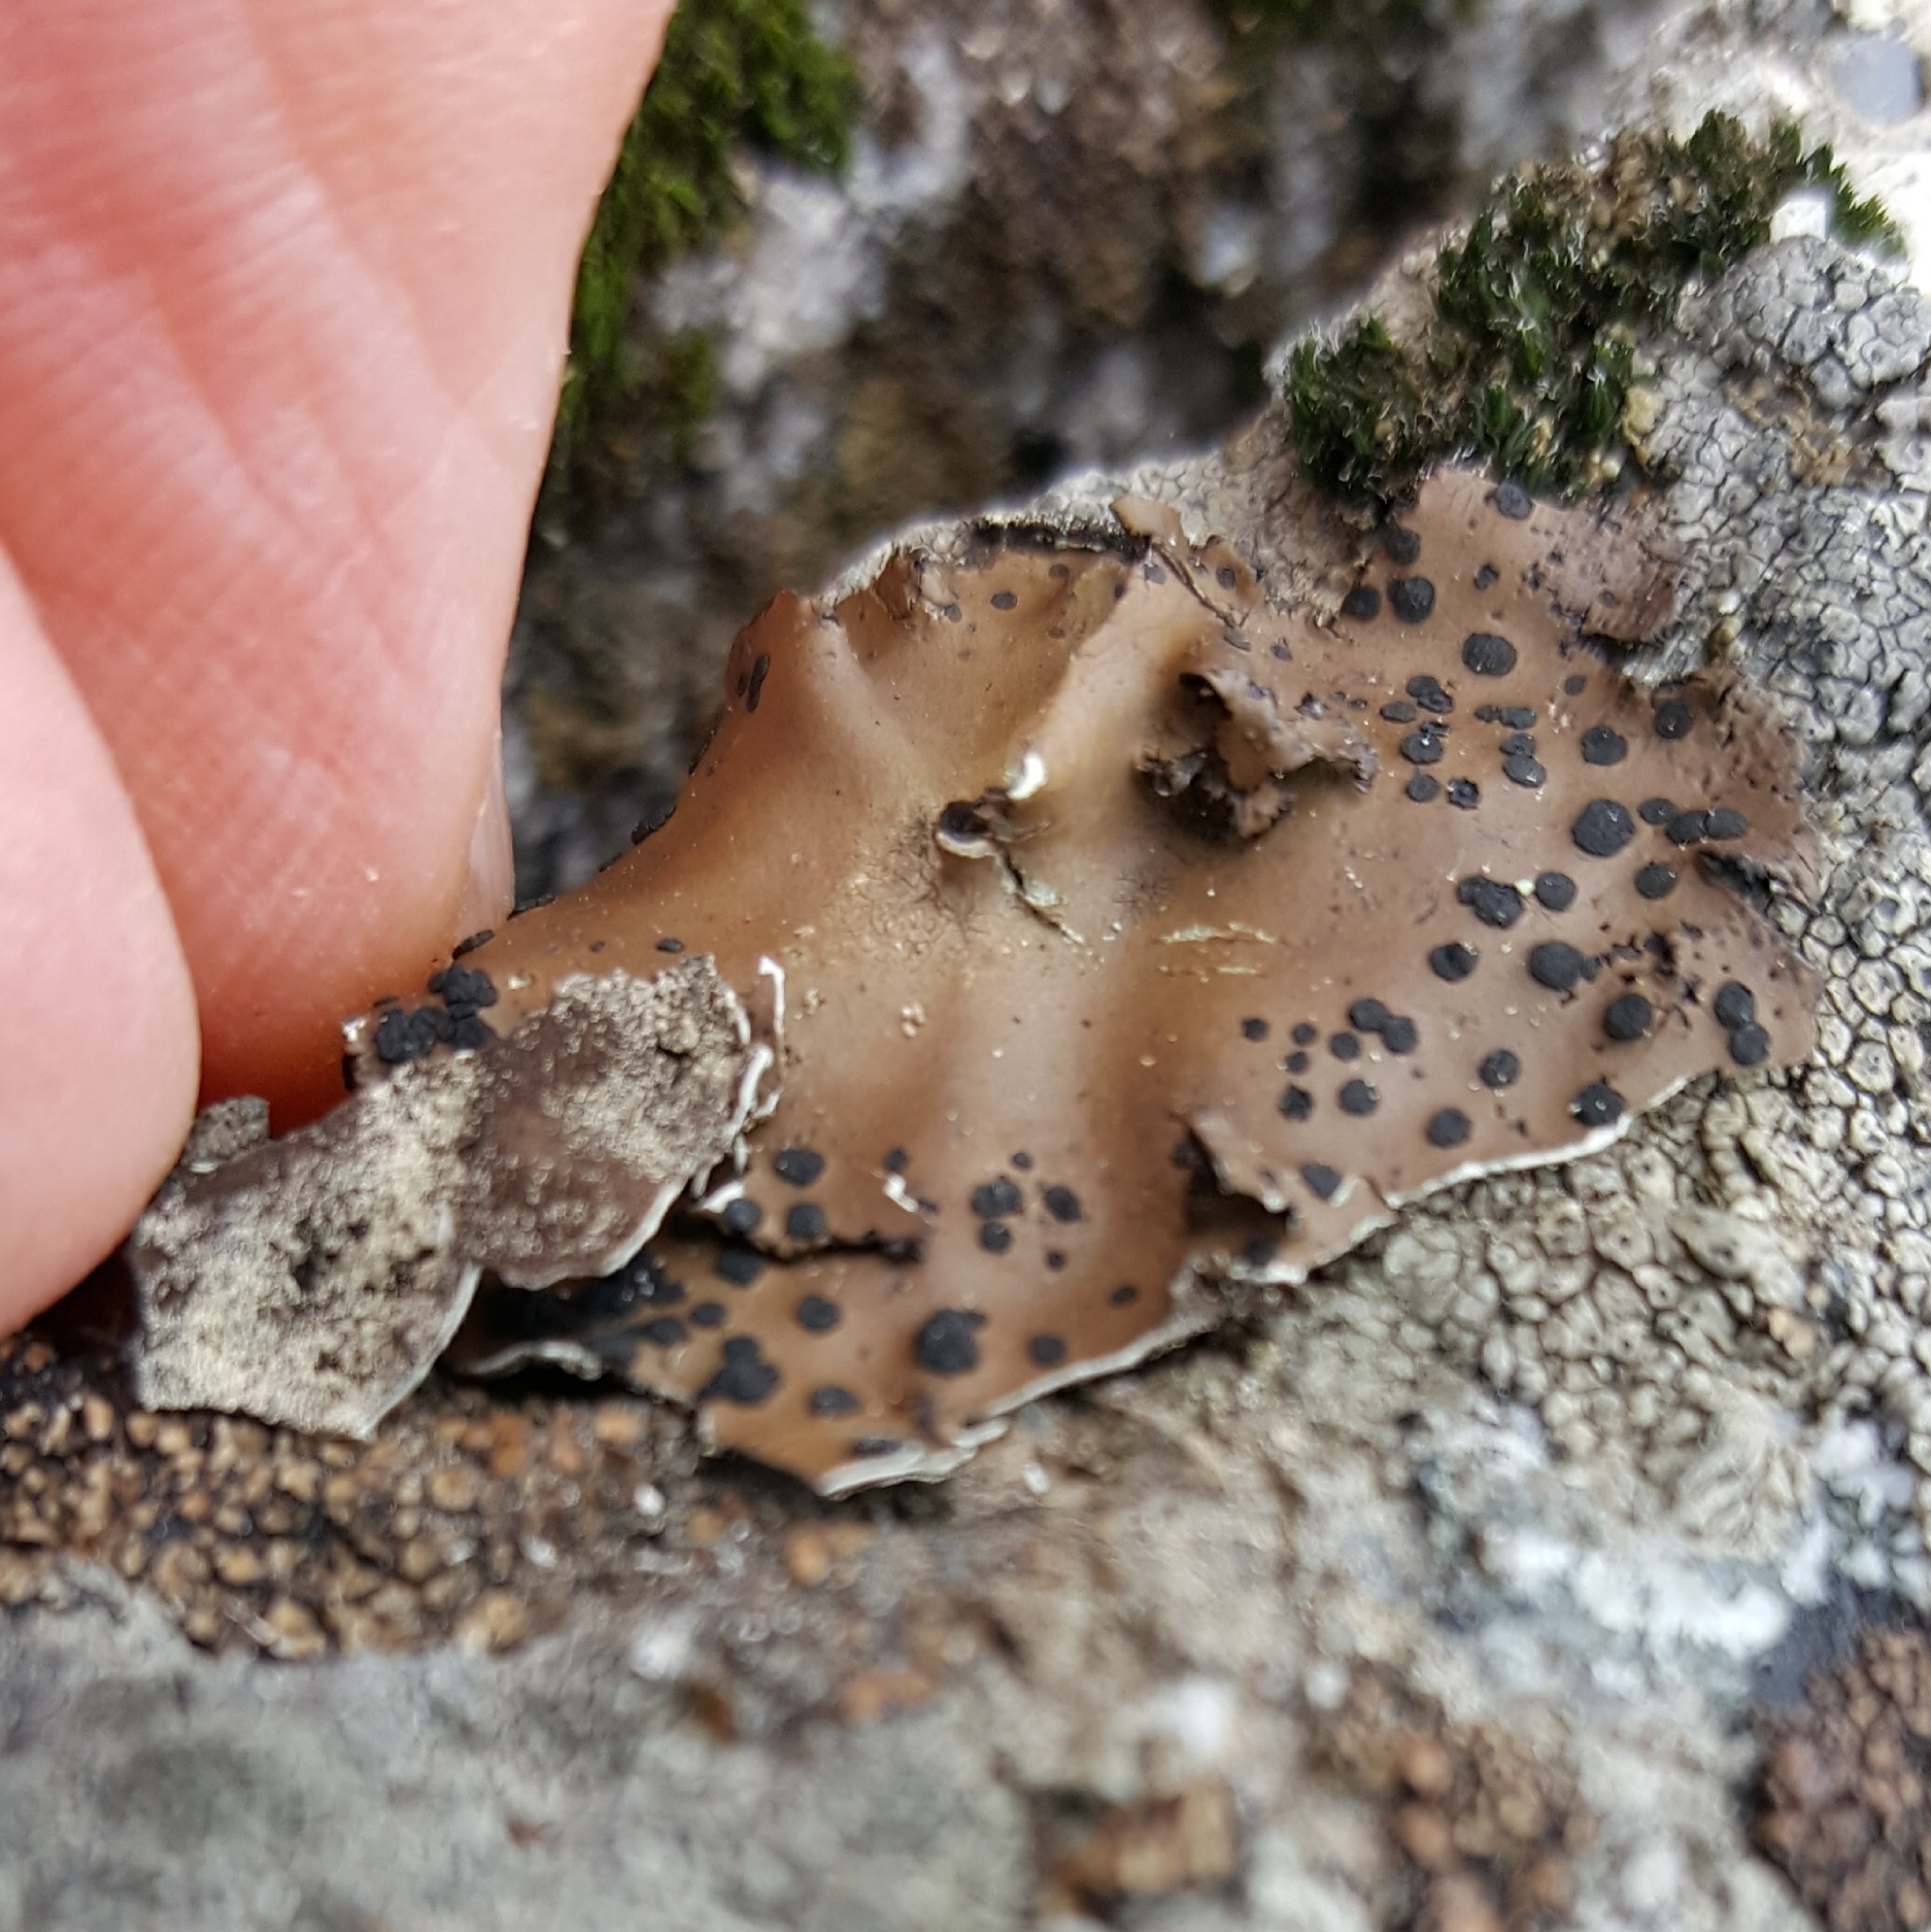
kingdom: Fungi
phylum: Ascomycota
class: Lecanoromycetes
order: Umbilicariales
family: Umbilicariaceae
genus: Umbilicaria
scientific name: Umbilicaria phaea
